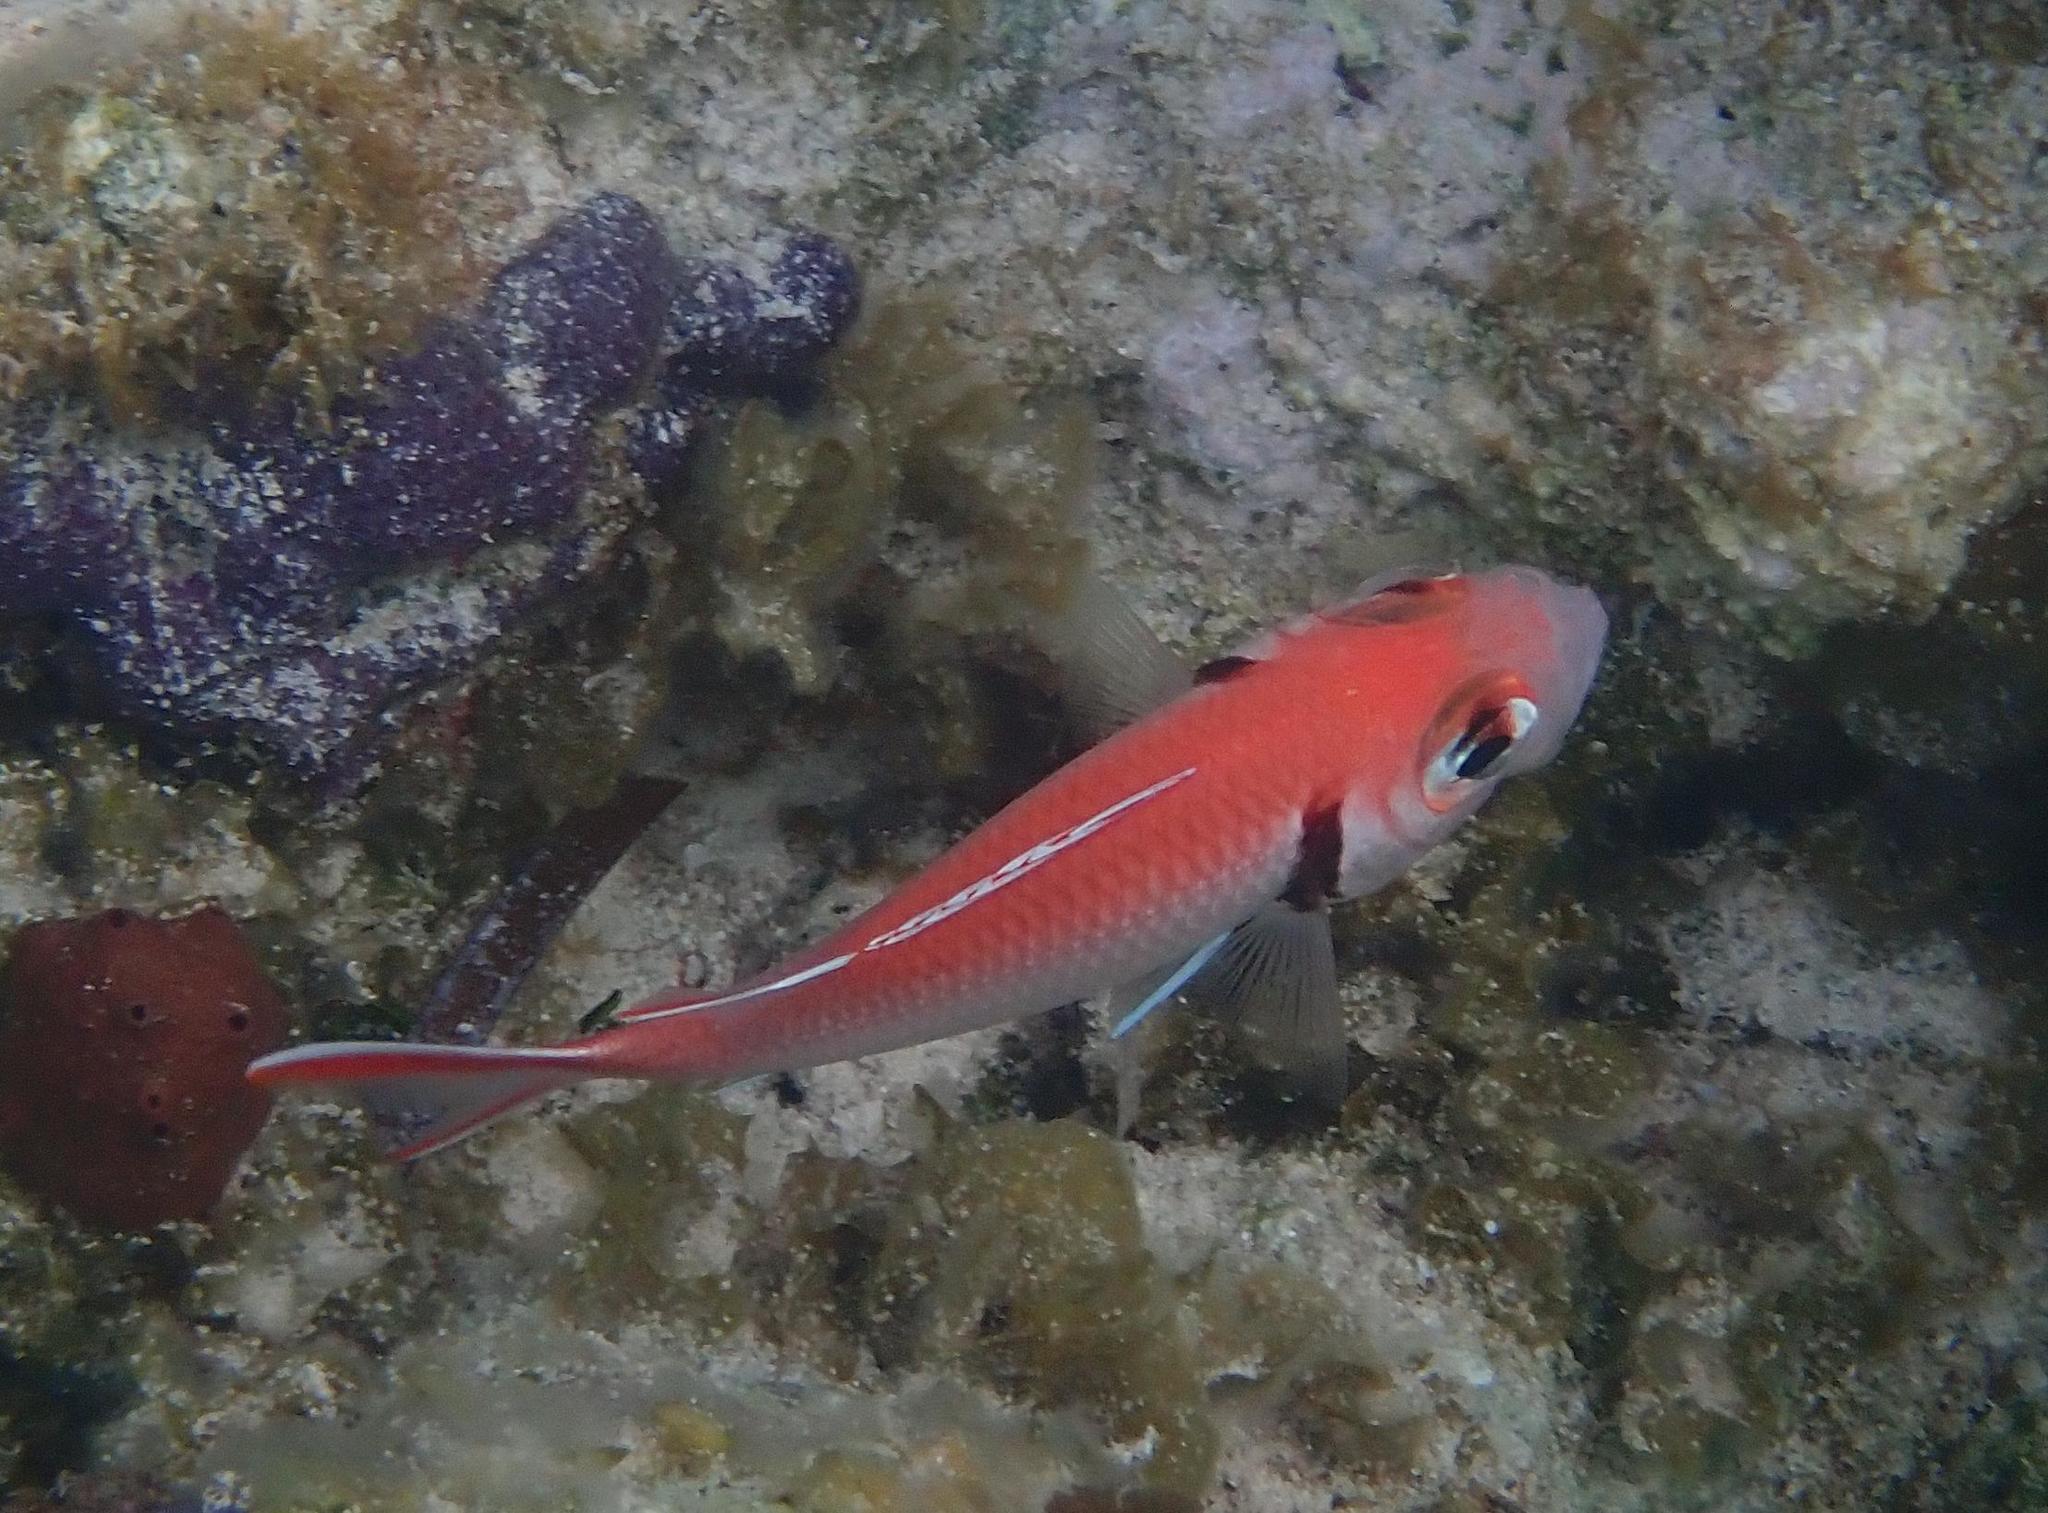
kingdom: Animalia
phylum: Chordata
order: Beryciformes
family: Holocentridae
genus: Myripristis
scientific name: Myripristis jacobus
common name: Blackbar soldierfish
